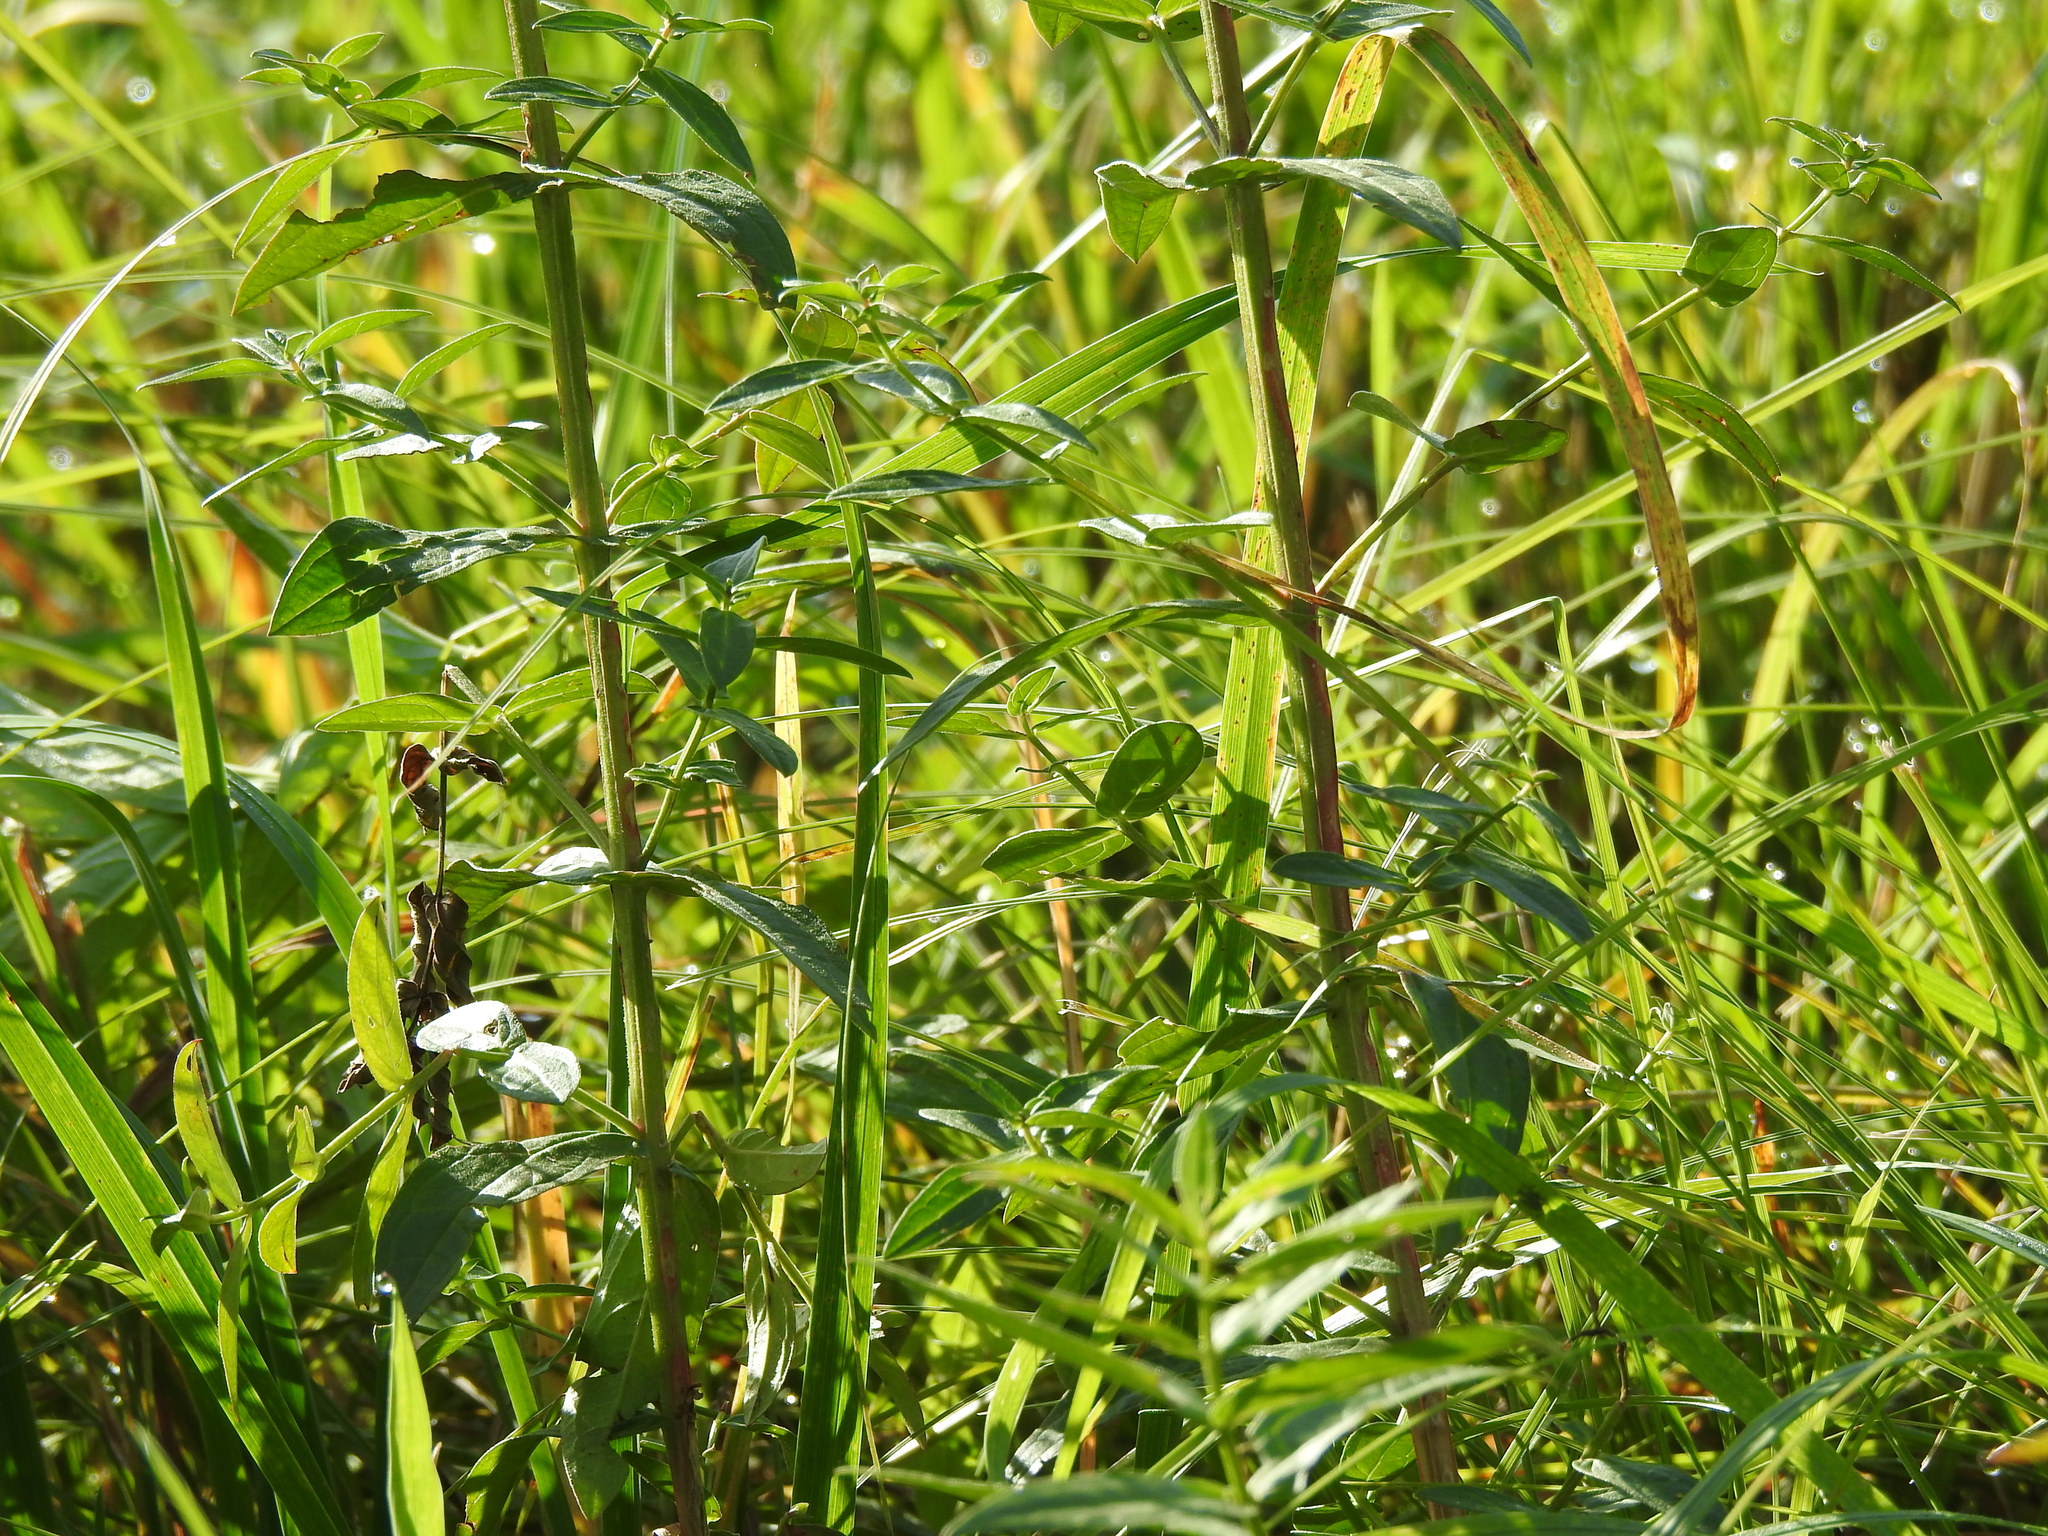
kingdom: Plantae
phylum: Tracheophyta
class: Magnoliopsida
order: Myrtales
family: Lythraceae
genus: Lythrum
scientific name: Lythrum salicaria
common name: Purple loosestrife
